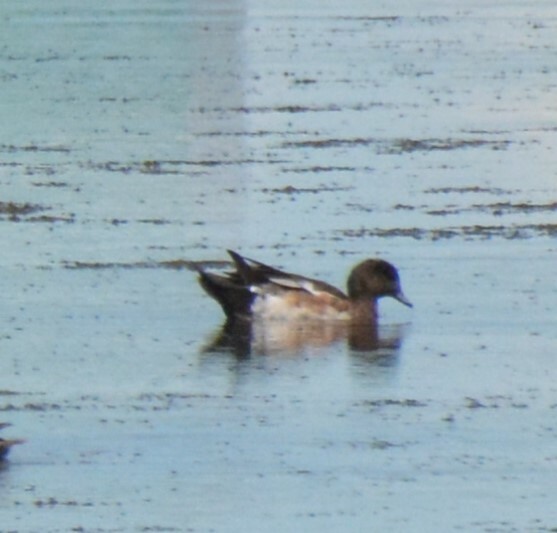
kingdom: Animalia
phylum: Chordata
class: Aves
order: Anseriformes
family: Anatidae
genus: Mareca
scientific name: Mareca americana
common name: American wigeon
